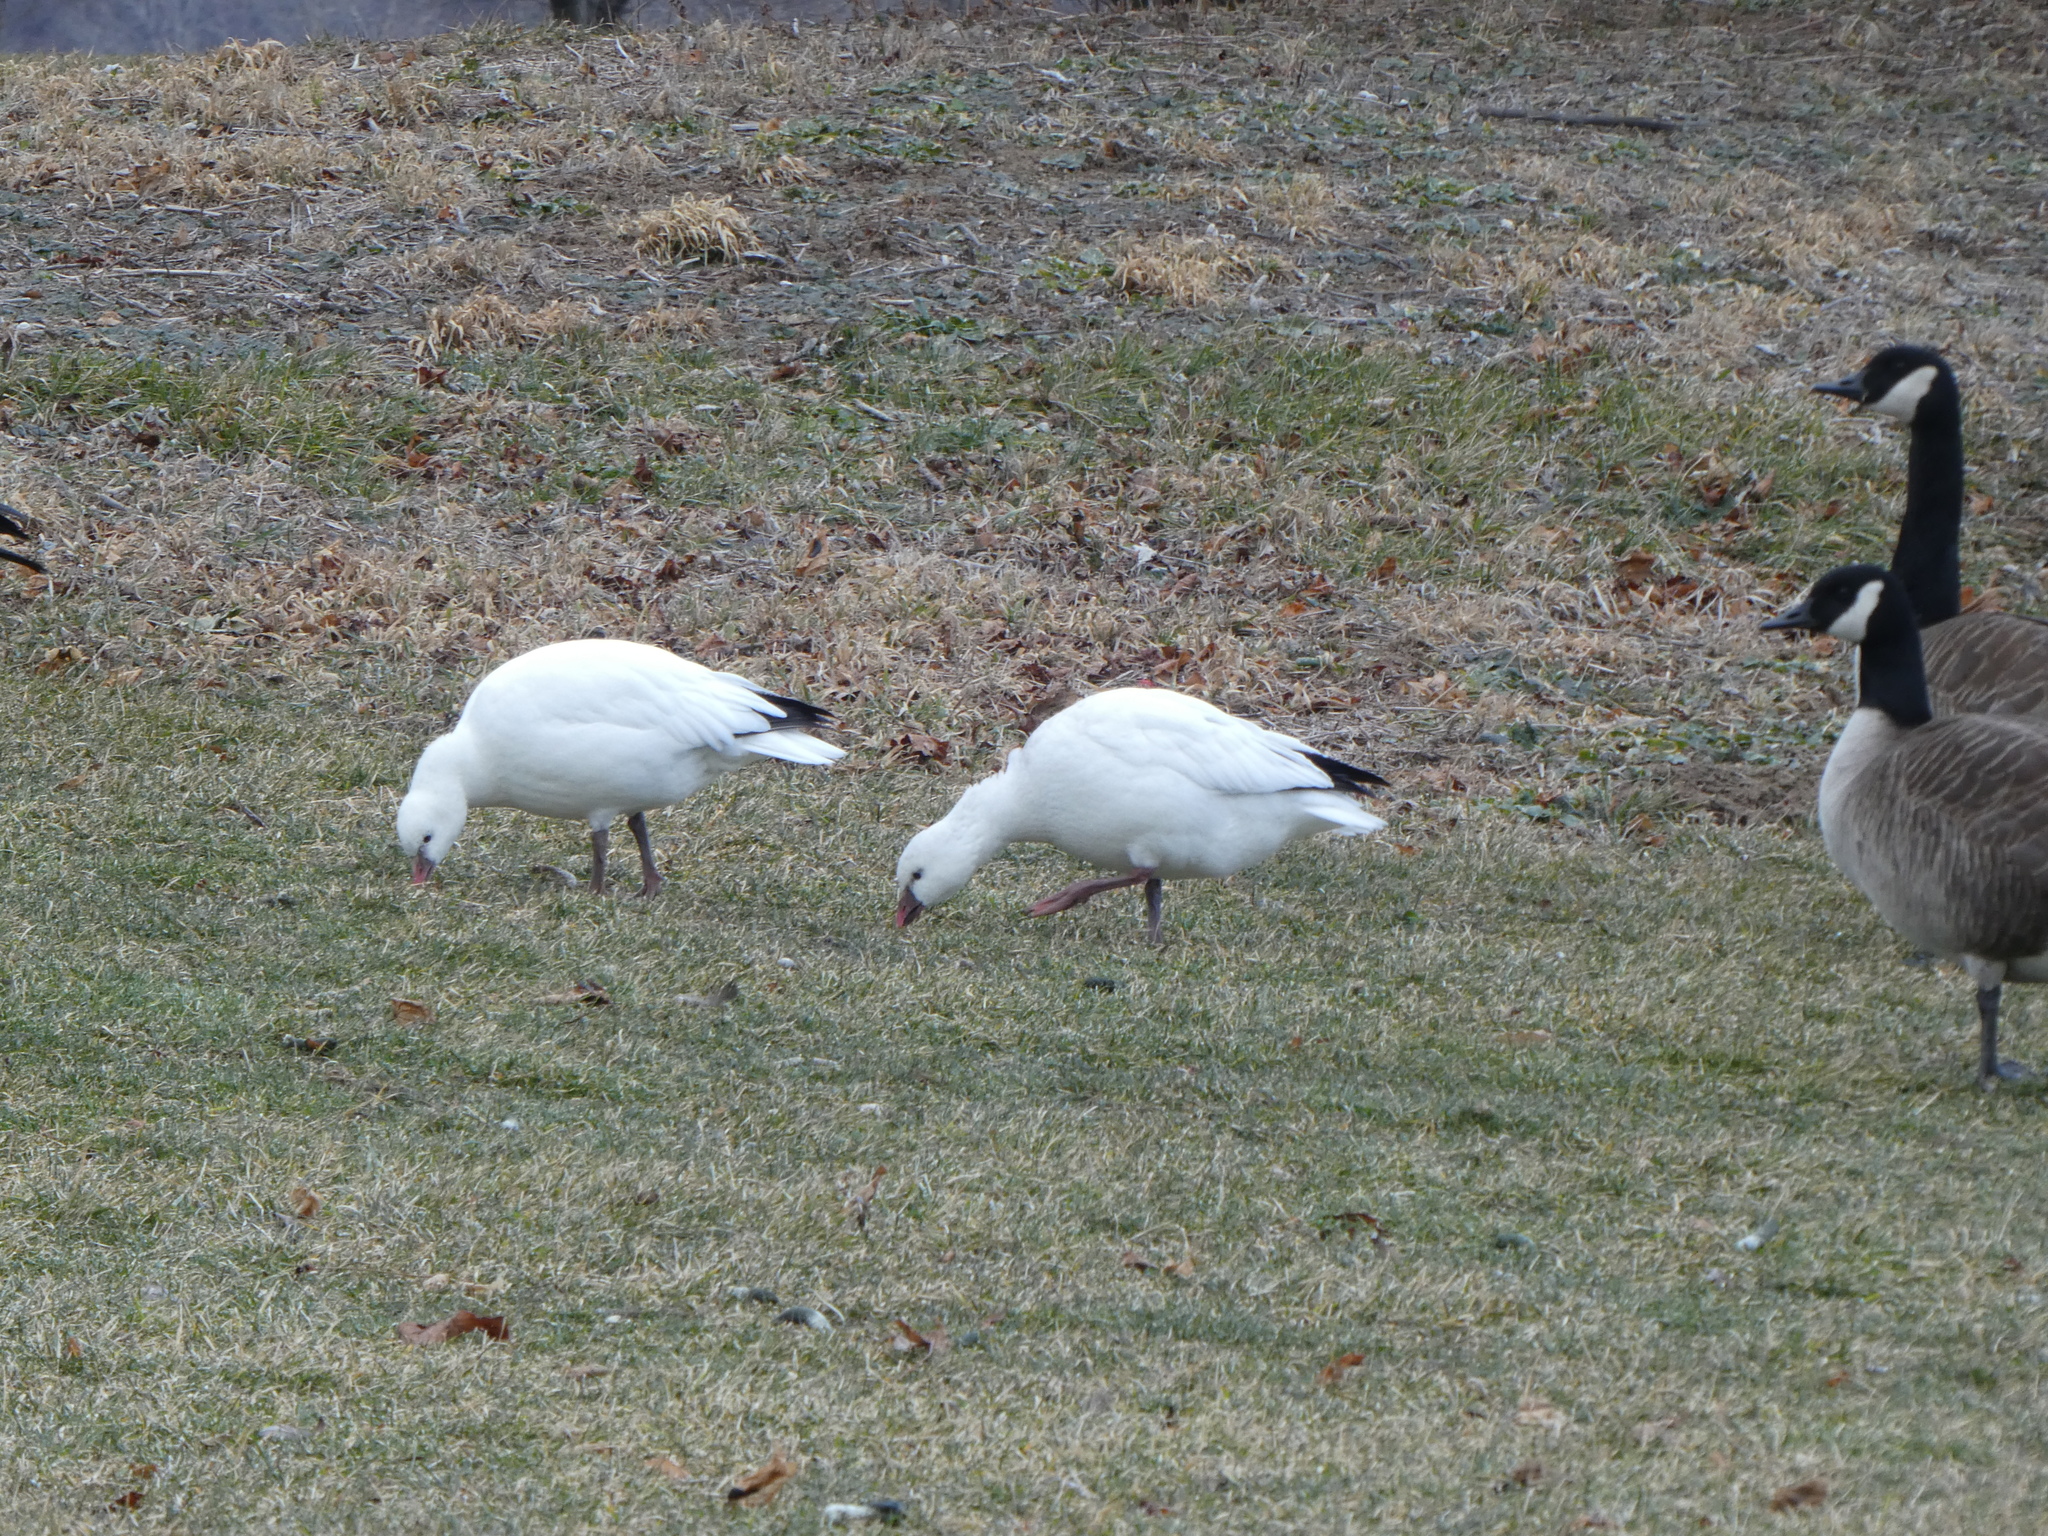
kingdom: Animalia
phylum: Chordata
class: Aves
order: Anseriformes
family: Anatidae
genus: Anser
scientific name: Anser rossii
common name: Ross's goose
